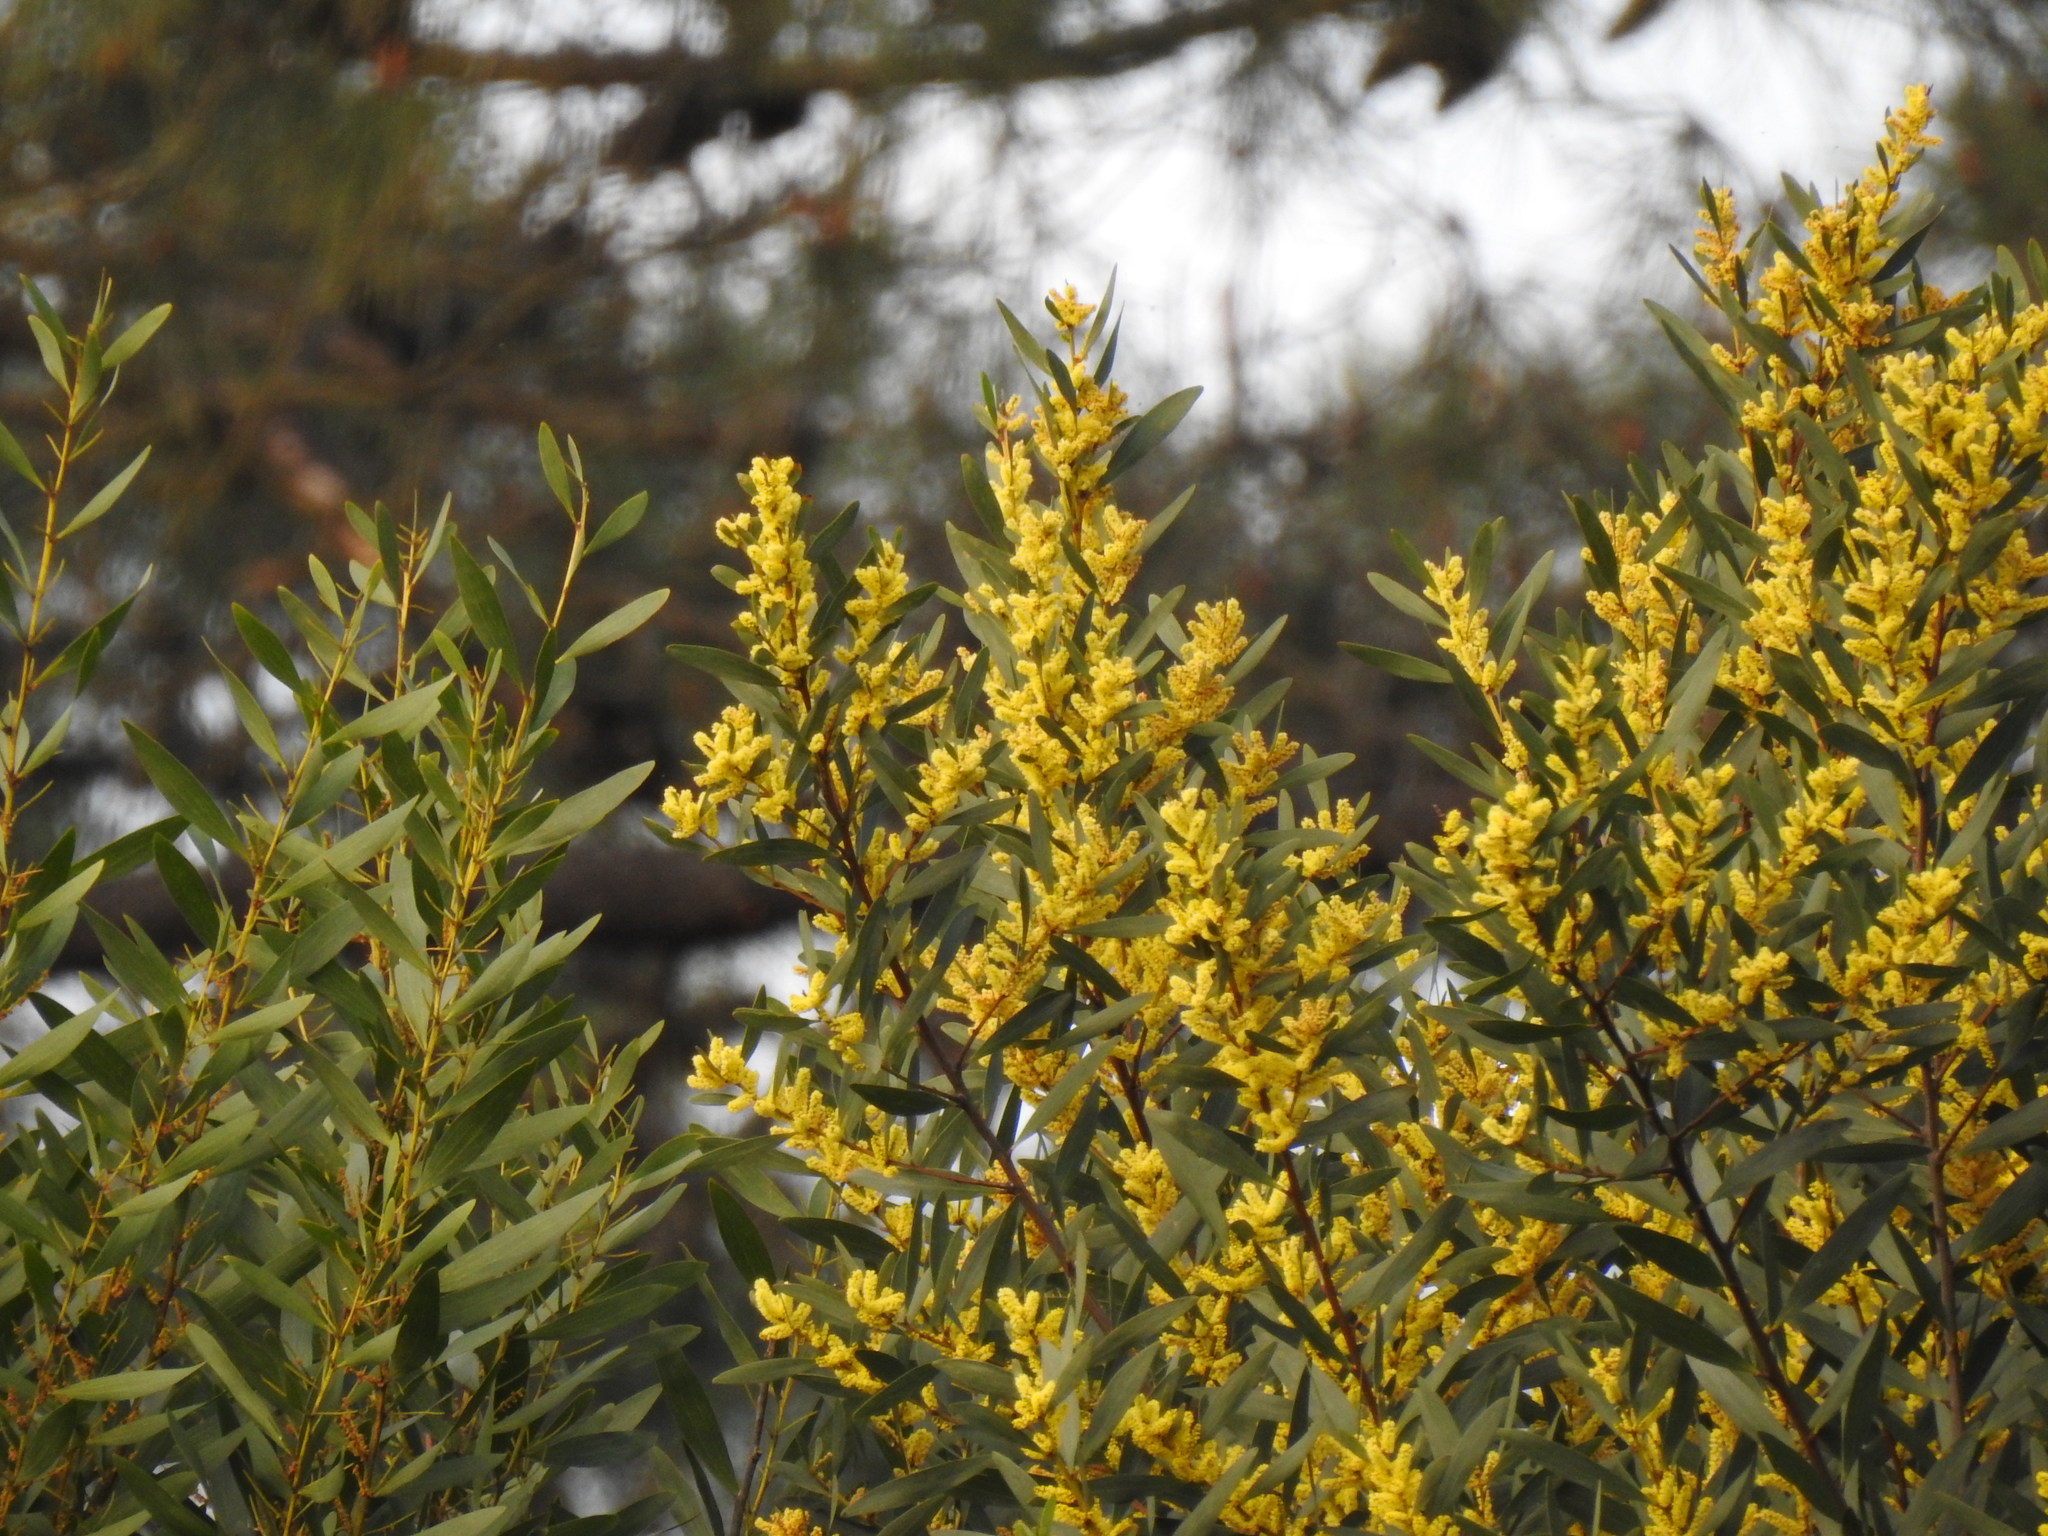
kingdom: Plantae
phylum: Tracheophyta
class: Magnoliopsida
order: Fabales
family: Fabaceae
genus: Acacia
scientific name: Acacia longifolia
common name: Sydney golden wattle
